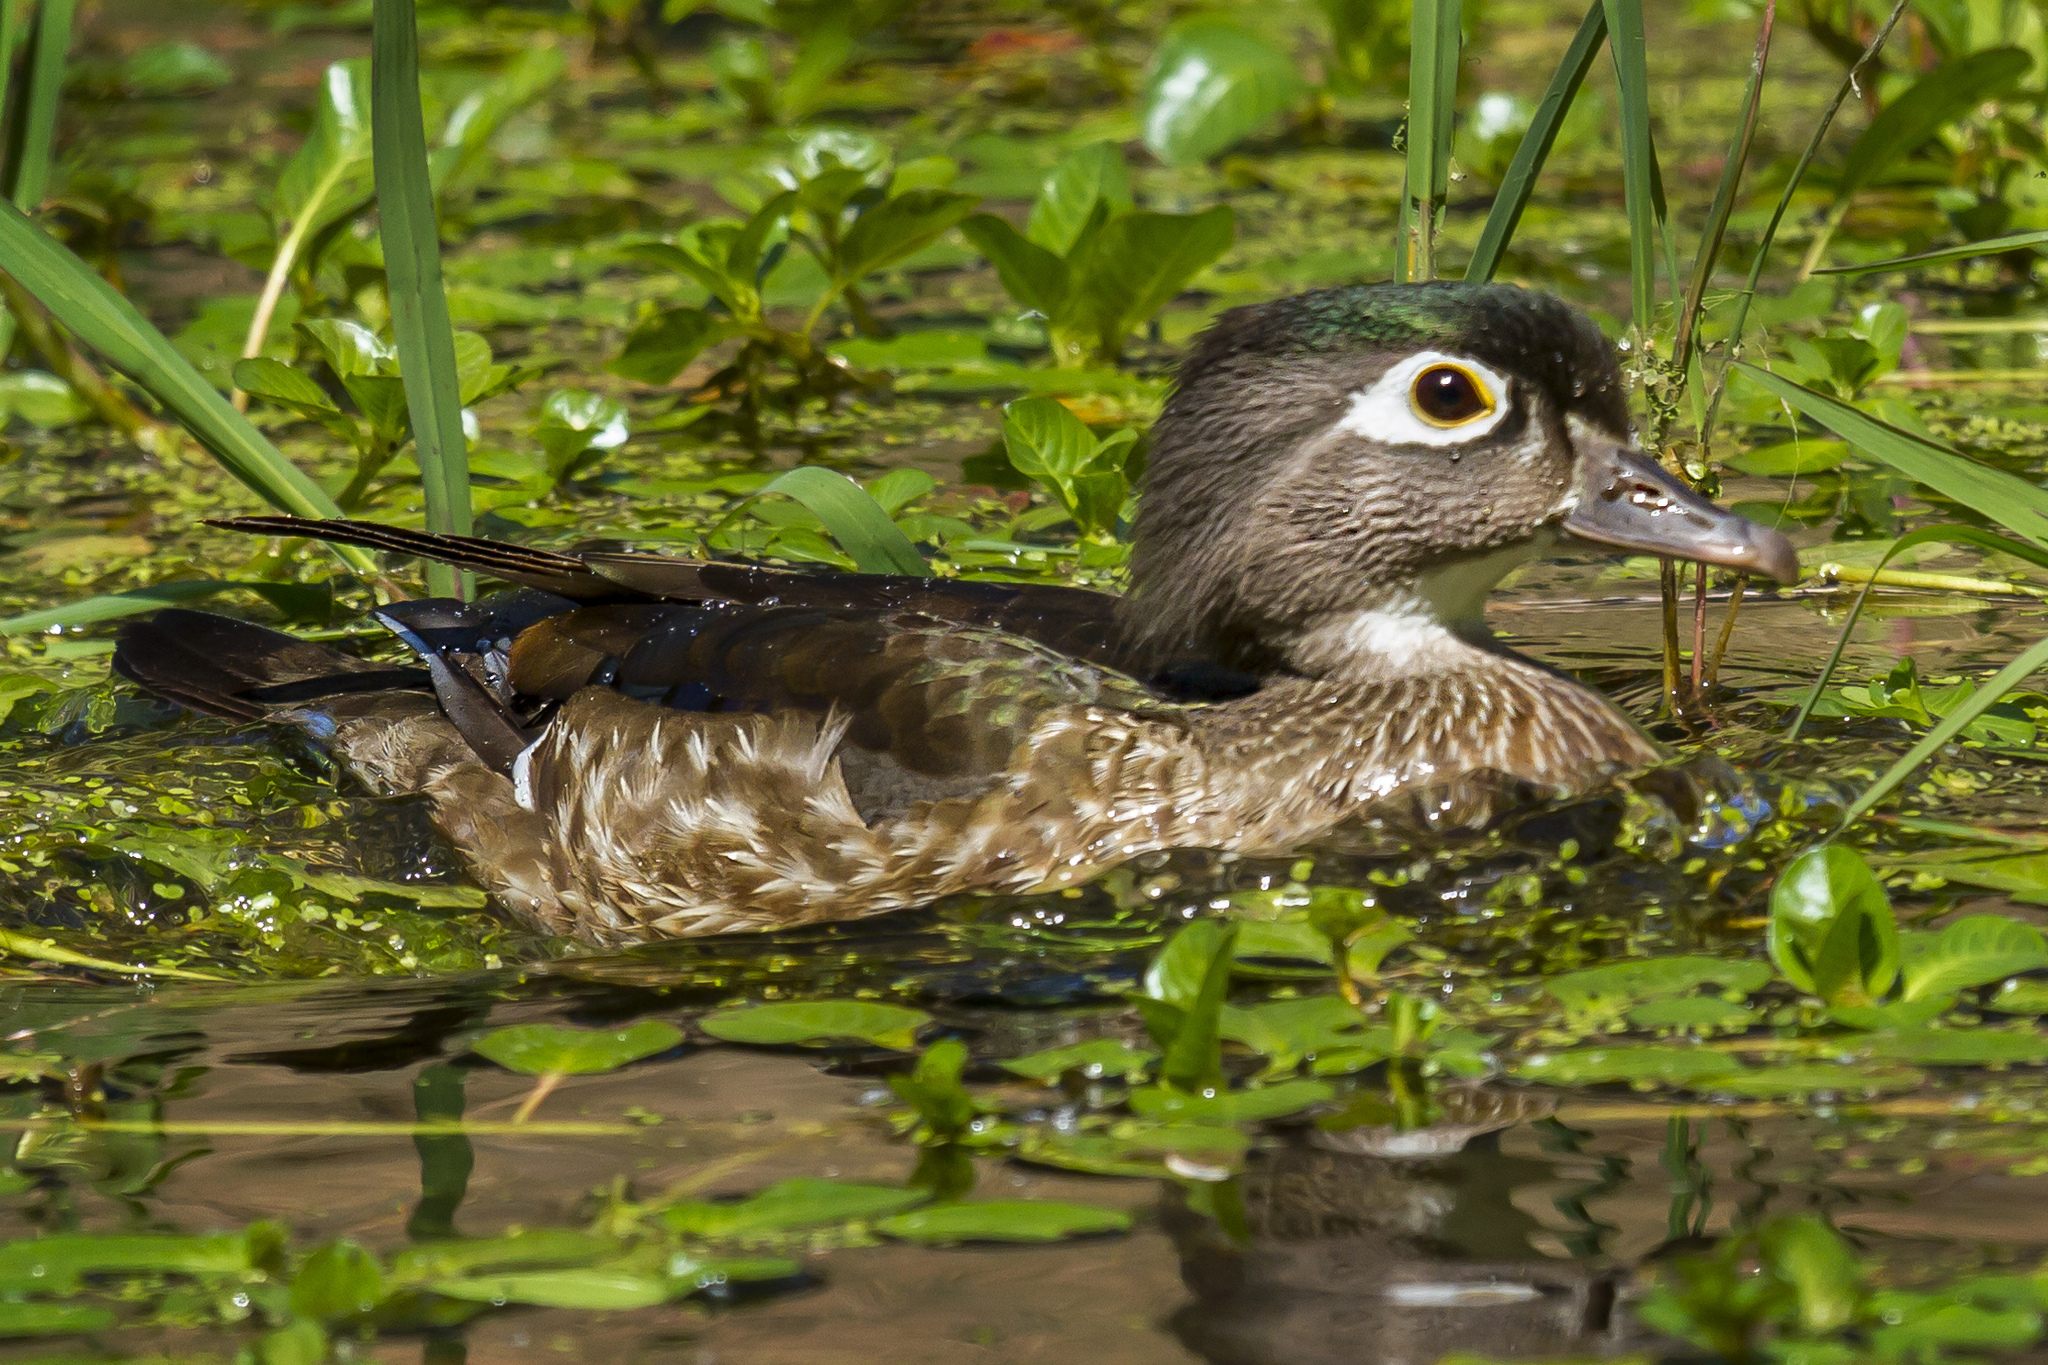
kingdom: Animalia
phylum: Chordata
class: Aves
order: Anseriformes
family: Anatidae
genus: Aix
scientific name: Aix sponsa
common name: Wood duck
